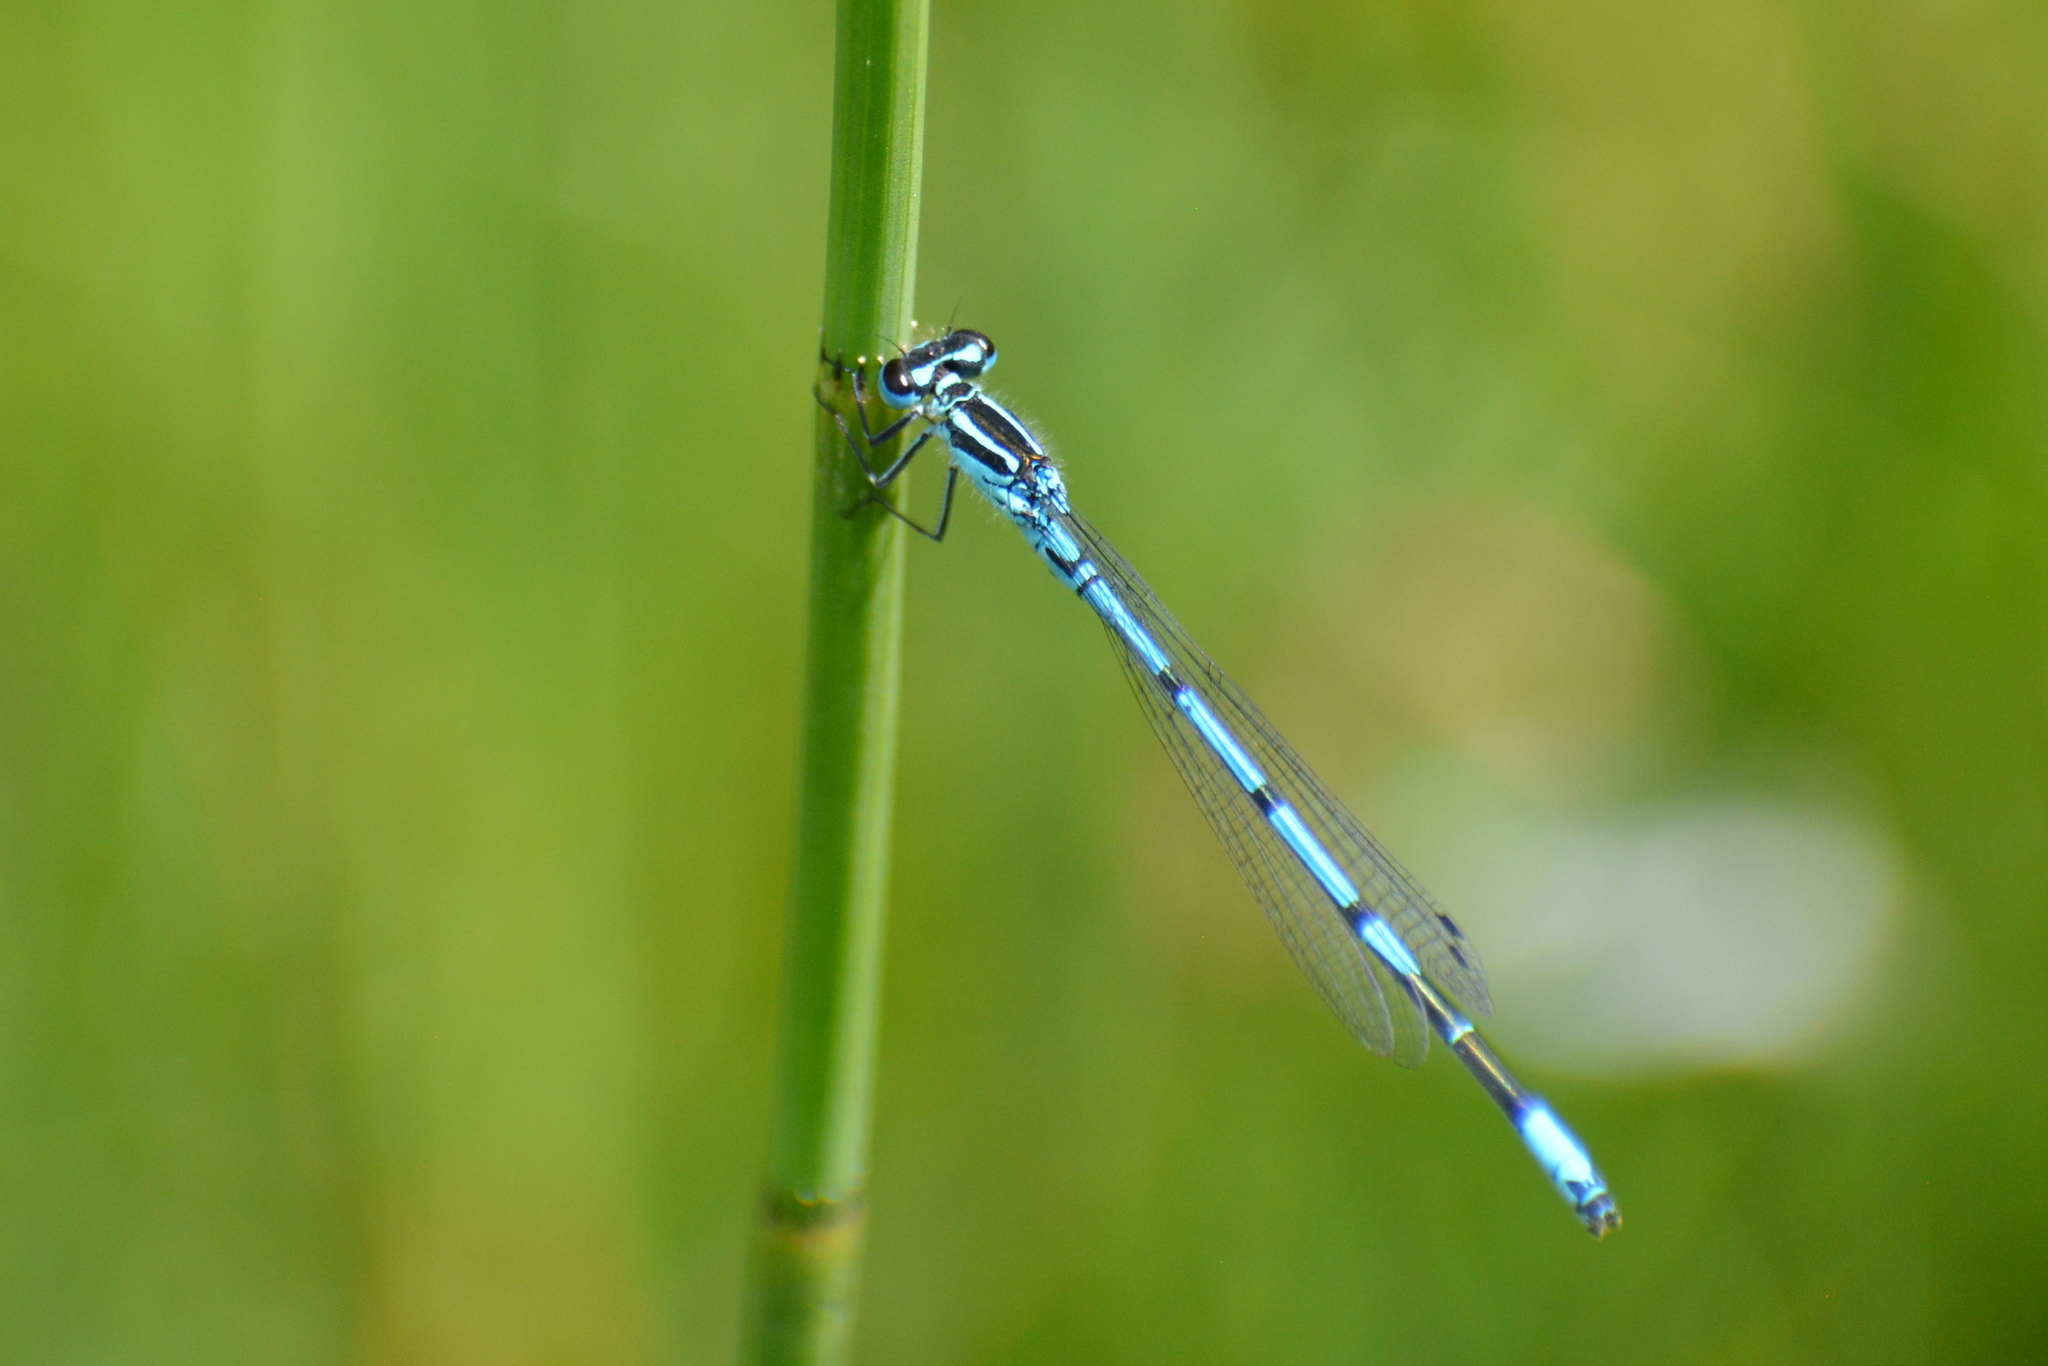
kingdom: Animalia
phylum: Arthropoda
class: Insecta
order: Odonata
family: Coenagrionidae
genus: Coenagrion
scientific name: Coenagrion puella
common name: Azure damselfly
